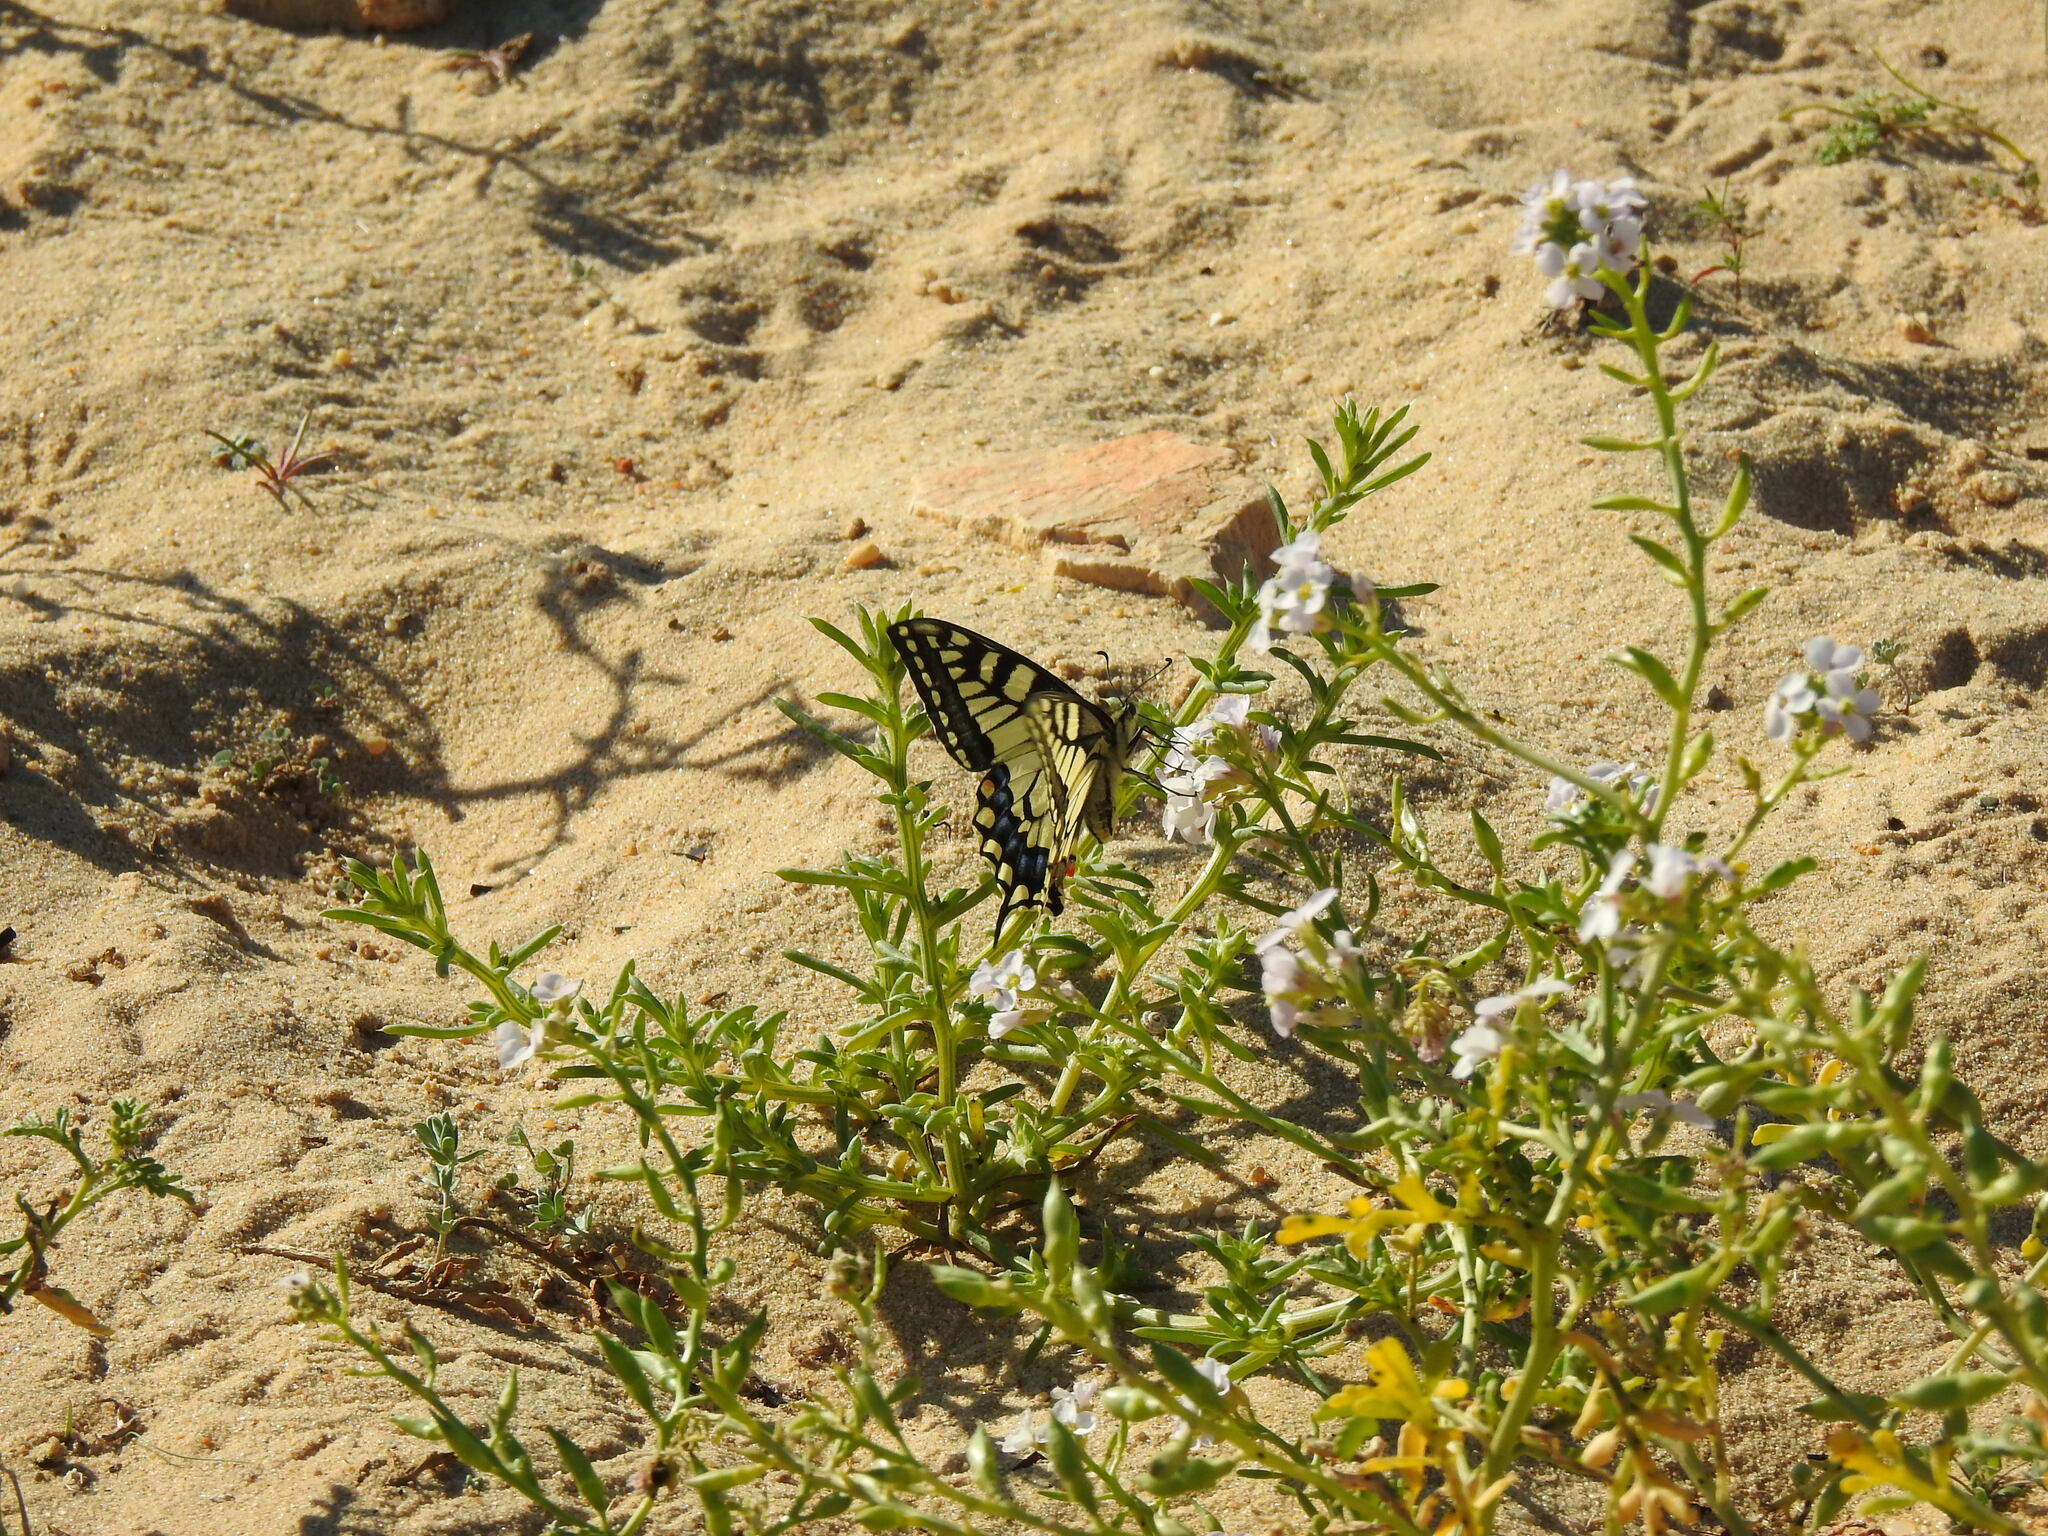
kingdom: Animalia
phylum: Arthropoda
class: Insecta
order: Lepidoptera
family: Papilionidae
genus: Papilio
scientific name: Papilio machaon
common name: Swallowtail
